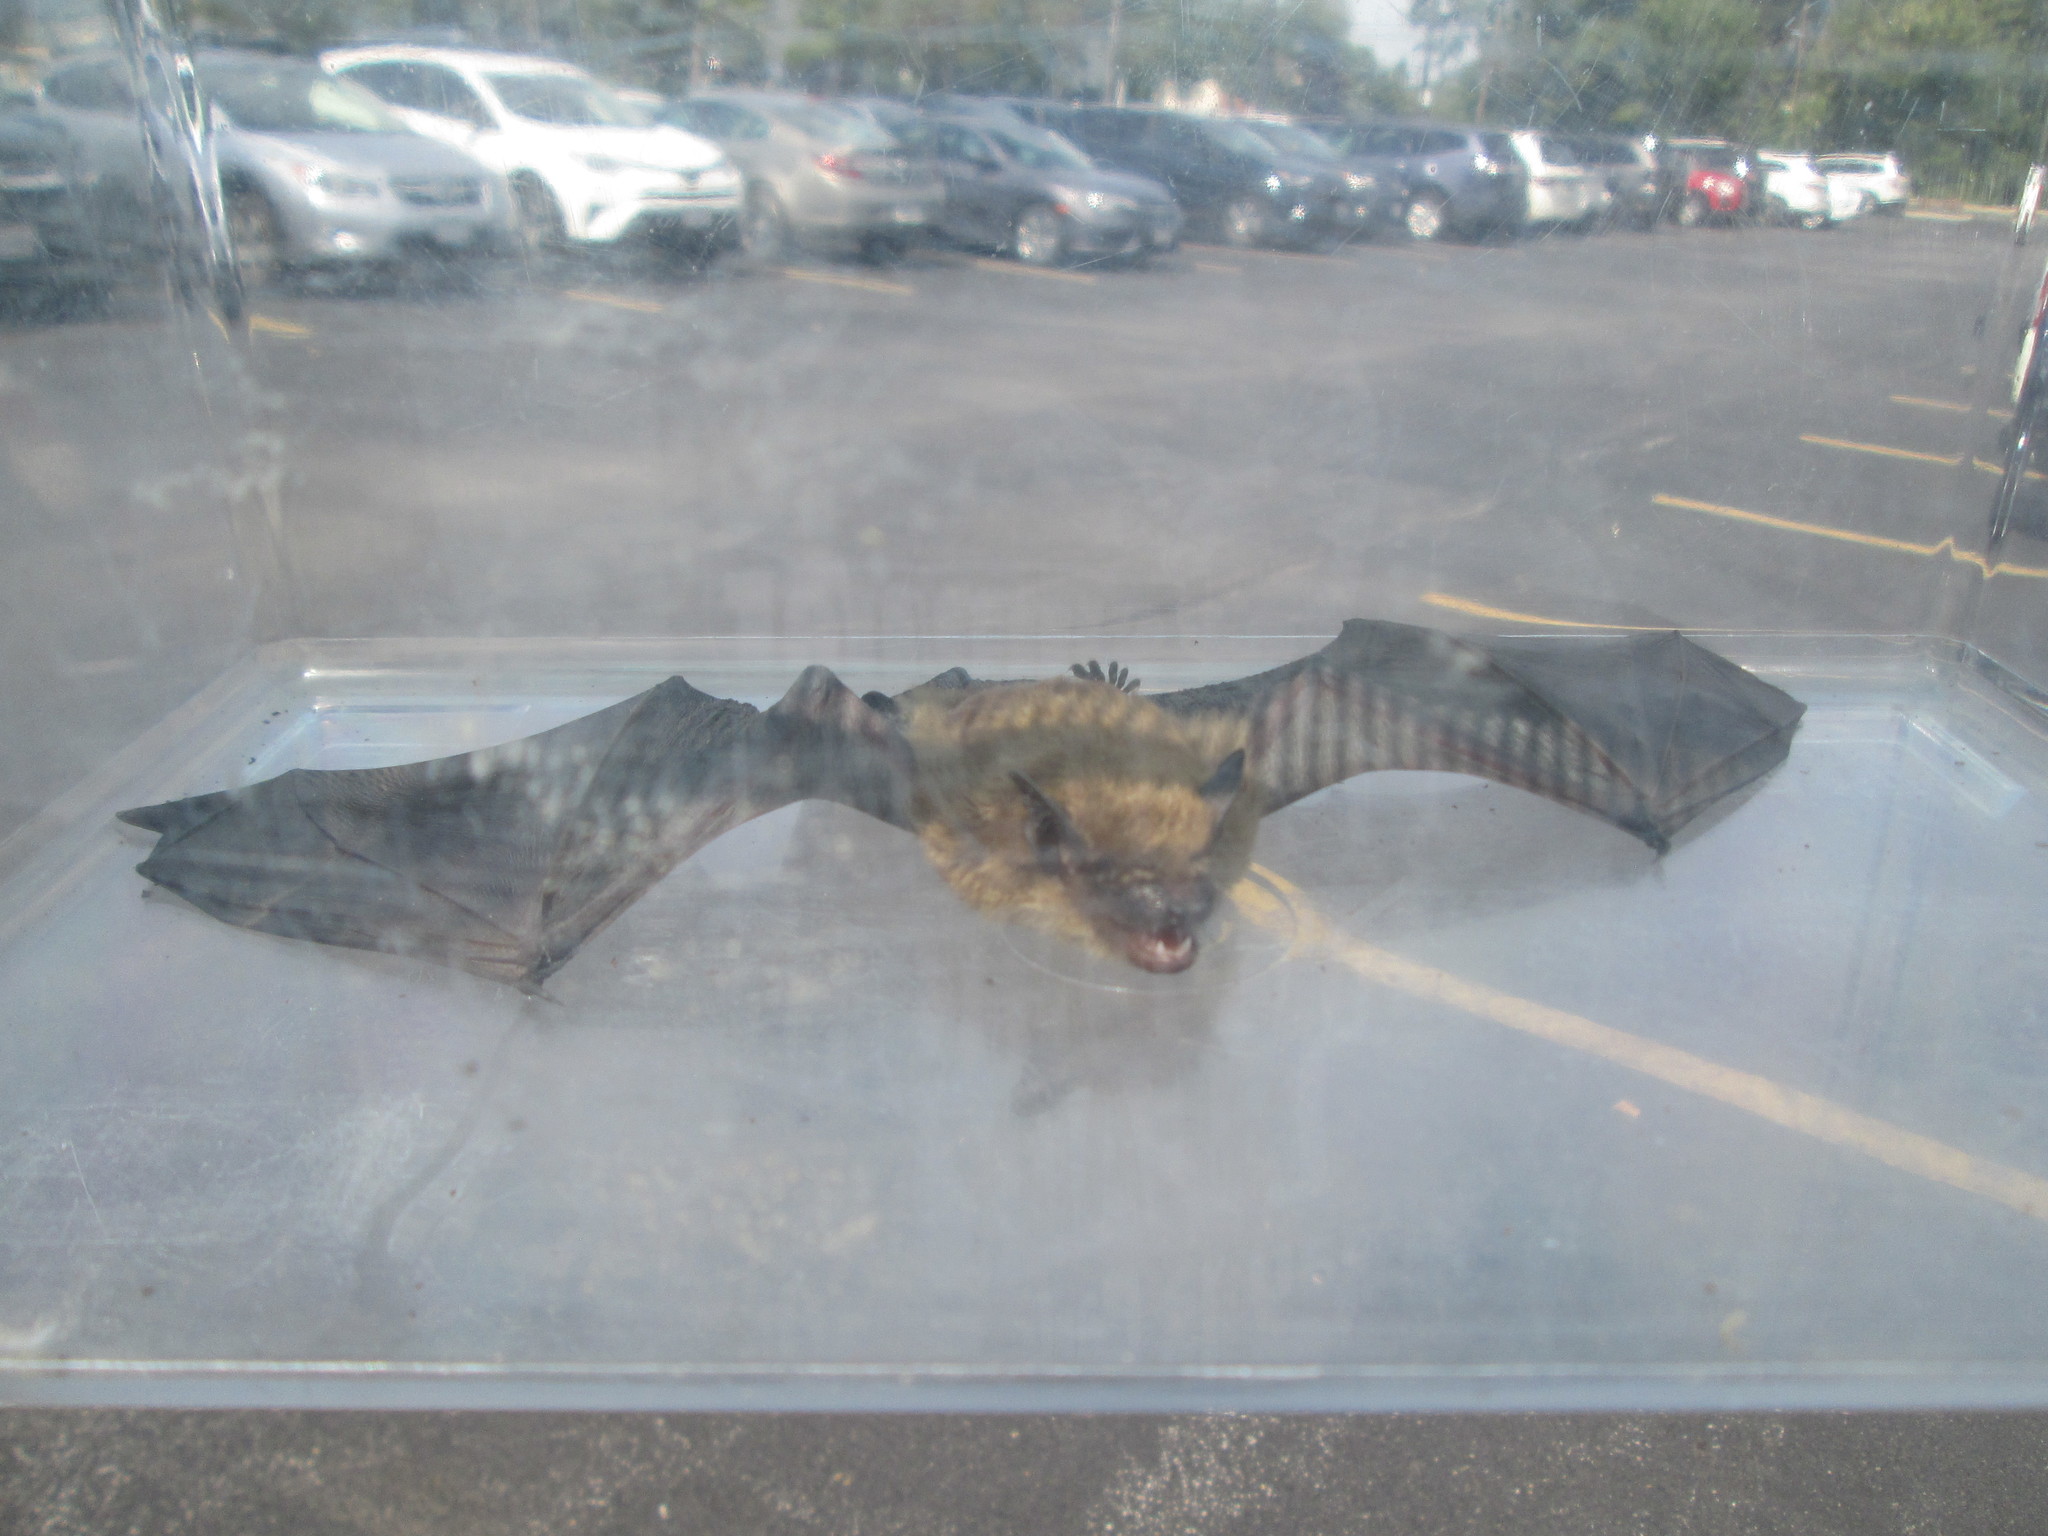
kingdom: Animalia
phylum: Chordata
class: Mammalia
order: Chiroptera
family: Vespertilionidae
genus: Eptesicus
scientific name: Eptesicus fuscus
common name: Big brown bat
